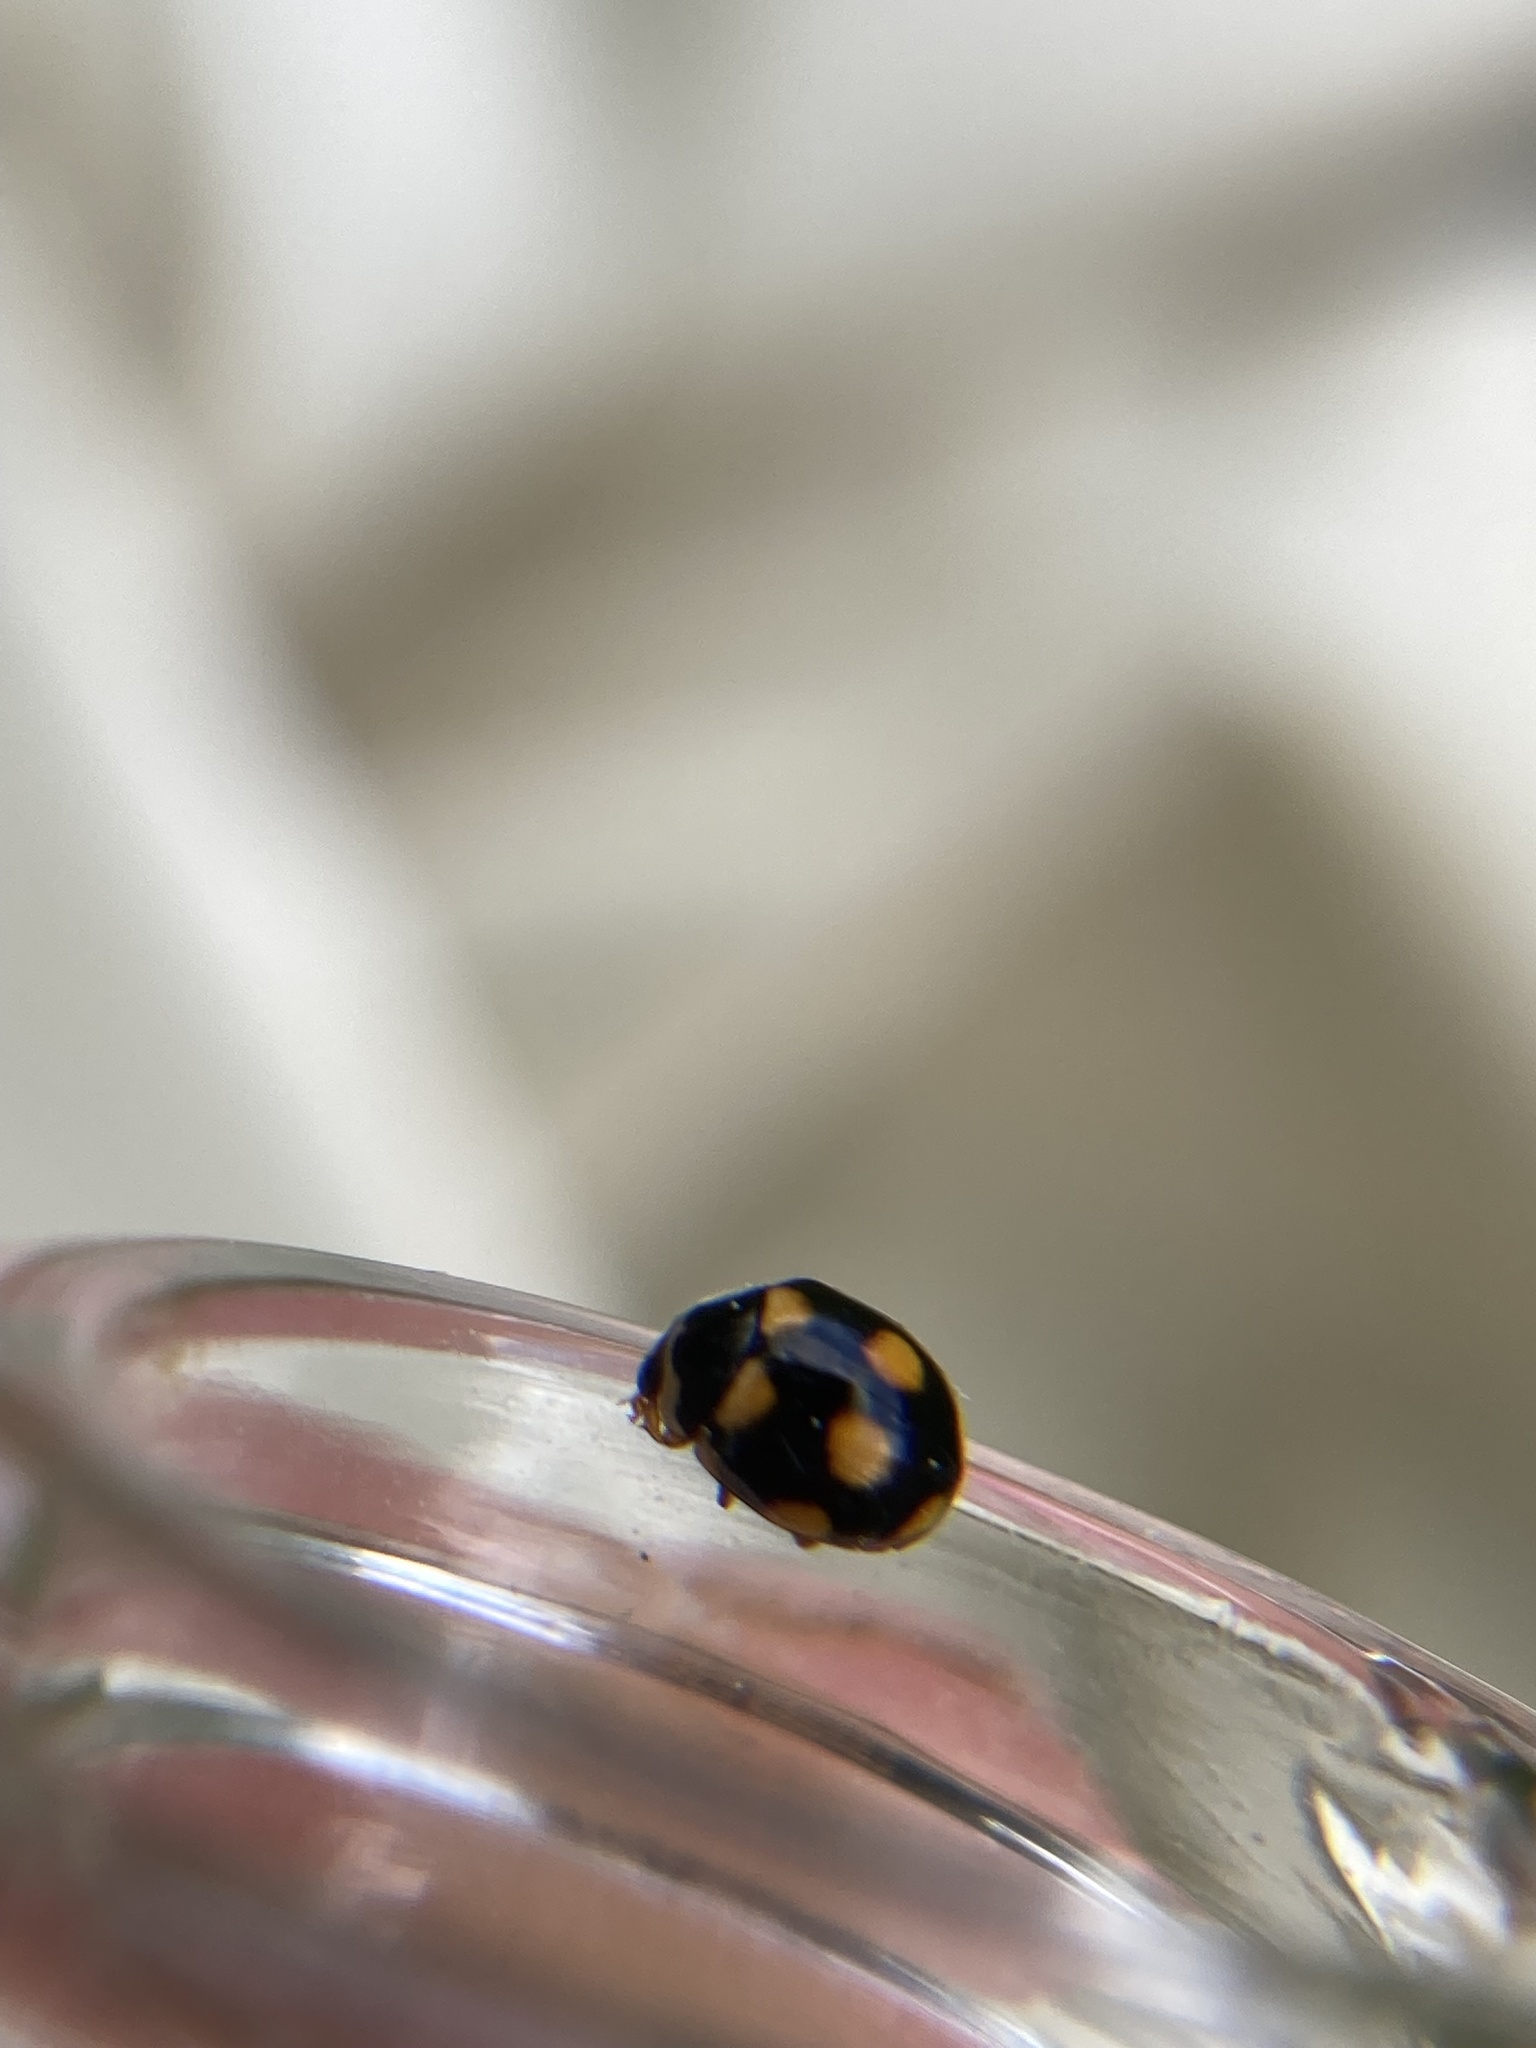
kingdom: Animalia
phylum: Arthropoda
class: Insecta
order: Coleoptera
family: Coccinellidae
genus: Brachiacantha
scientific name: Brachiacantha ursina
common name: Ursine spurleg lady beetle
